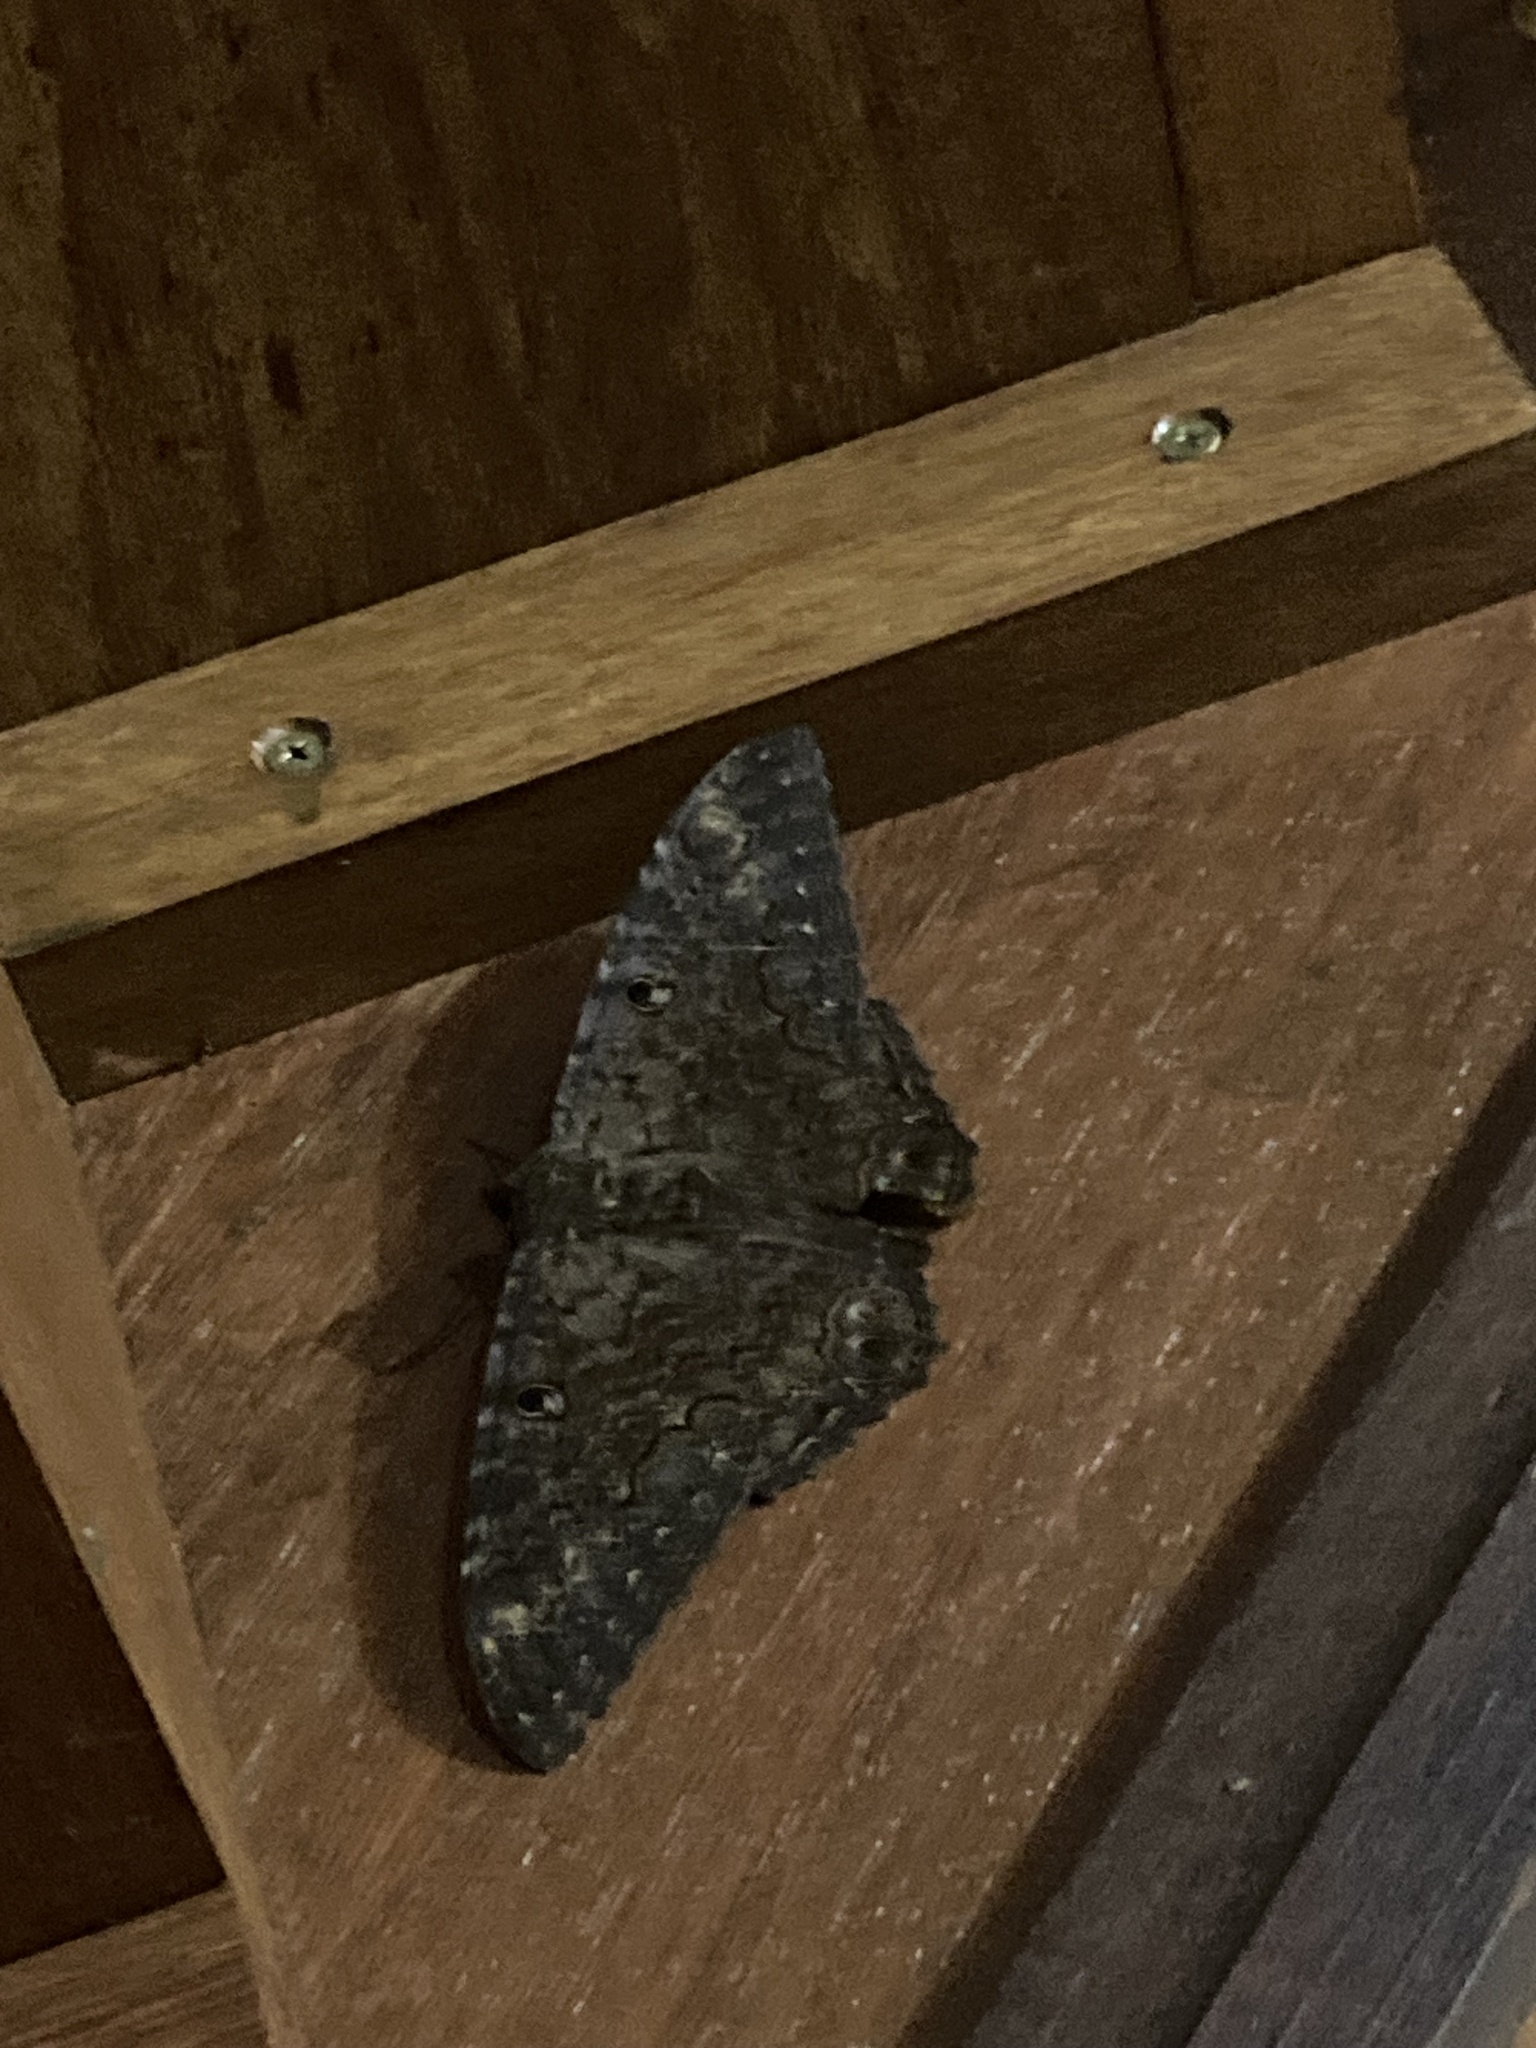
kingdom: Animalia
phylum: Arthropoda
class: Insecta
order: Lepidoptera
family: Erebidae
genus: Ascalapha
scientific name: Ascalapha odorata
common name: Black witch
